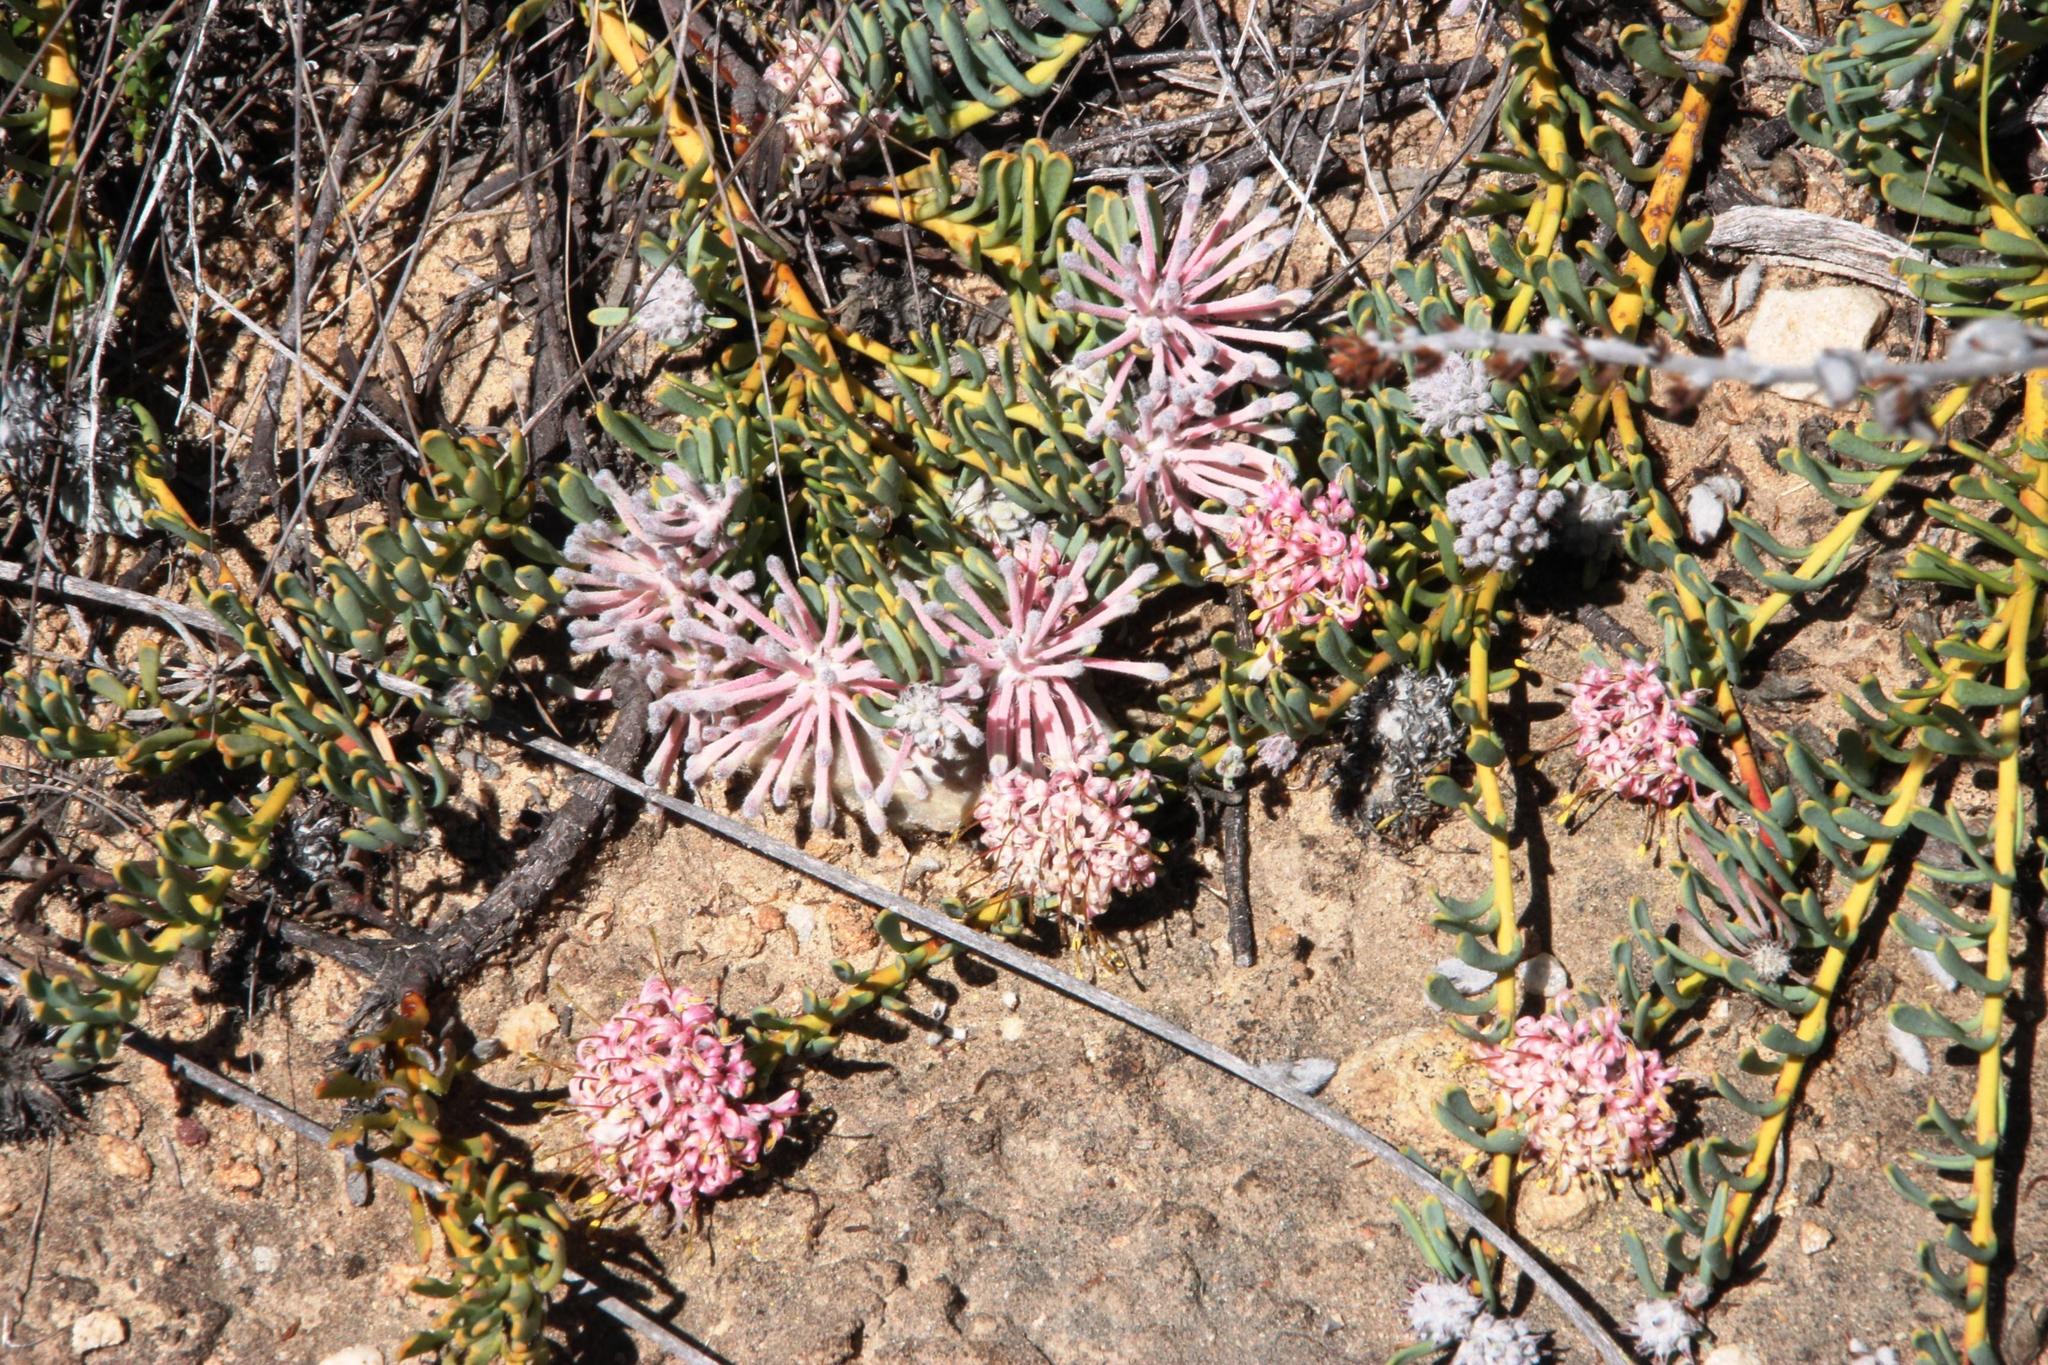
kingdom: Plantae
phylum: Tracheophyta
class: Magnoliopsida
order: Proteales
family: Proteaceae
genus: Vexatorella
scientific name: Vexatorella obtusata
